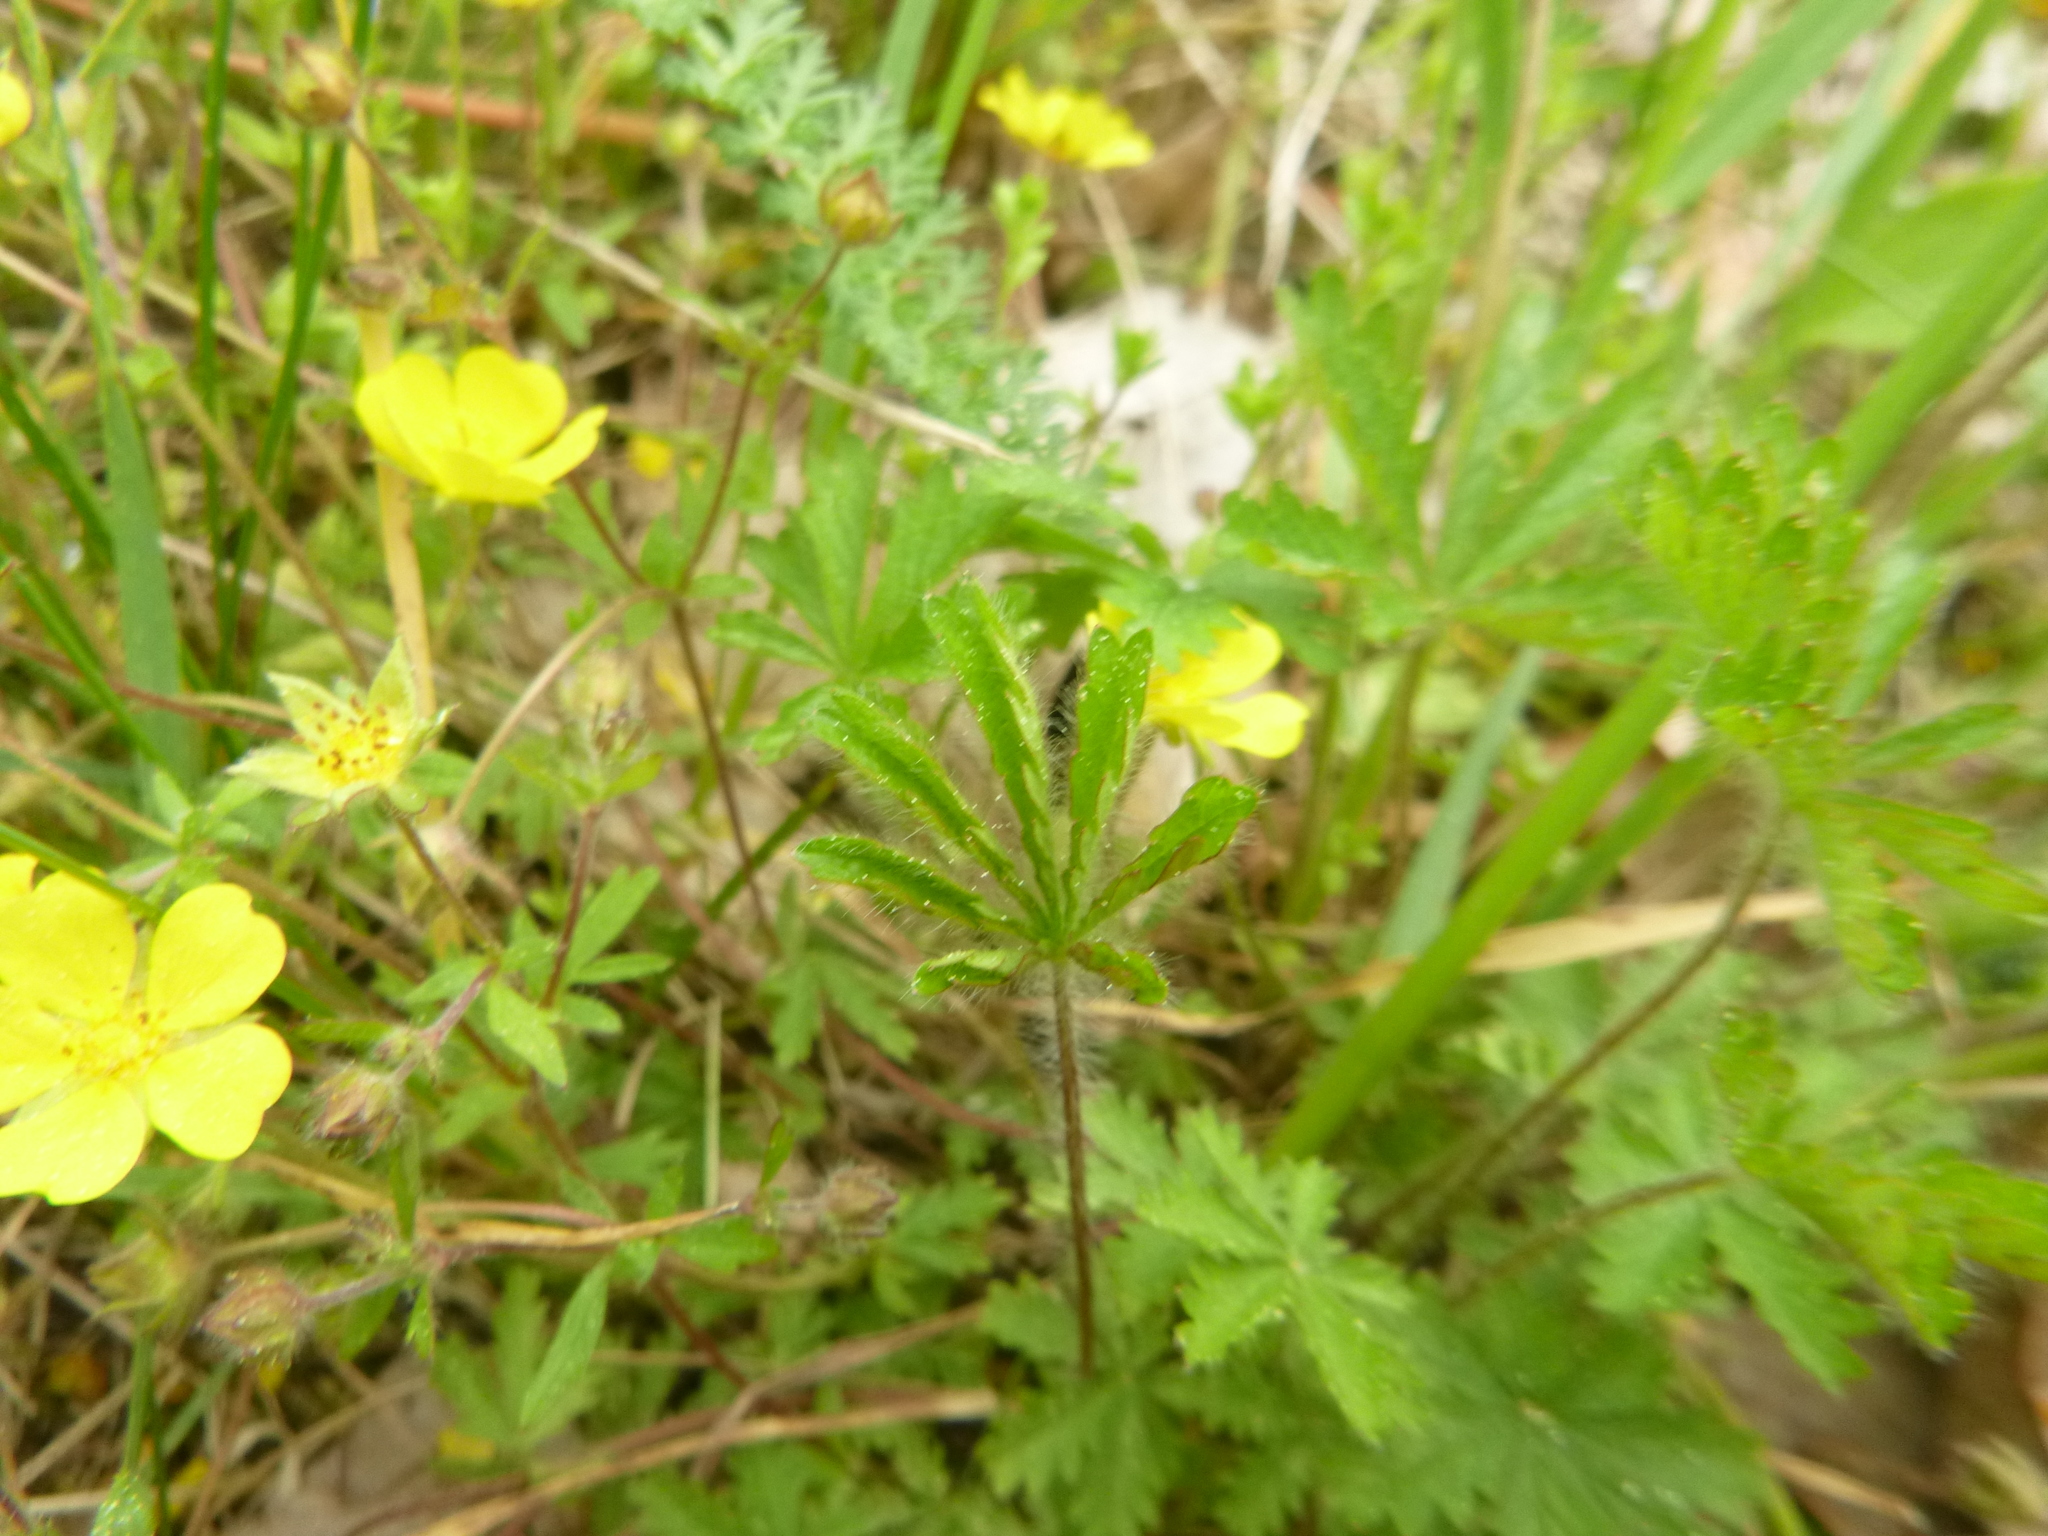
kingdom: Plantae
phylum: Tracheophyta
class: Magnoliopsida
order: Rosales
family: Rosaceae
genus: Potentilla
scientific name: Potentilla heptaphylla
